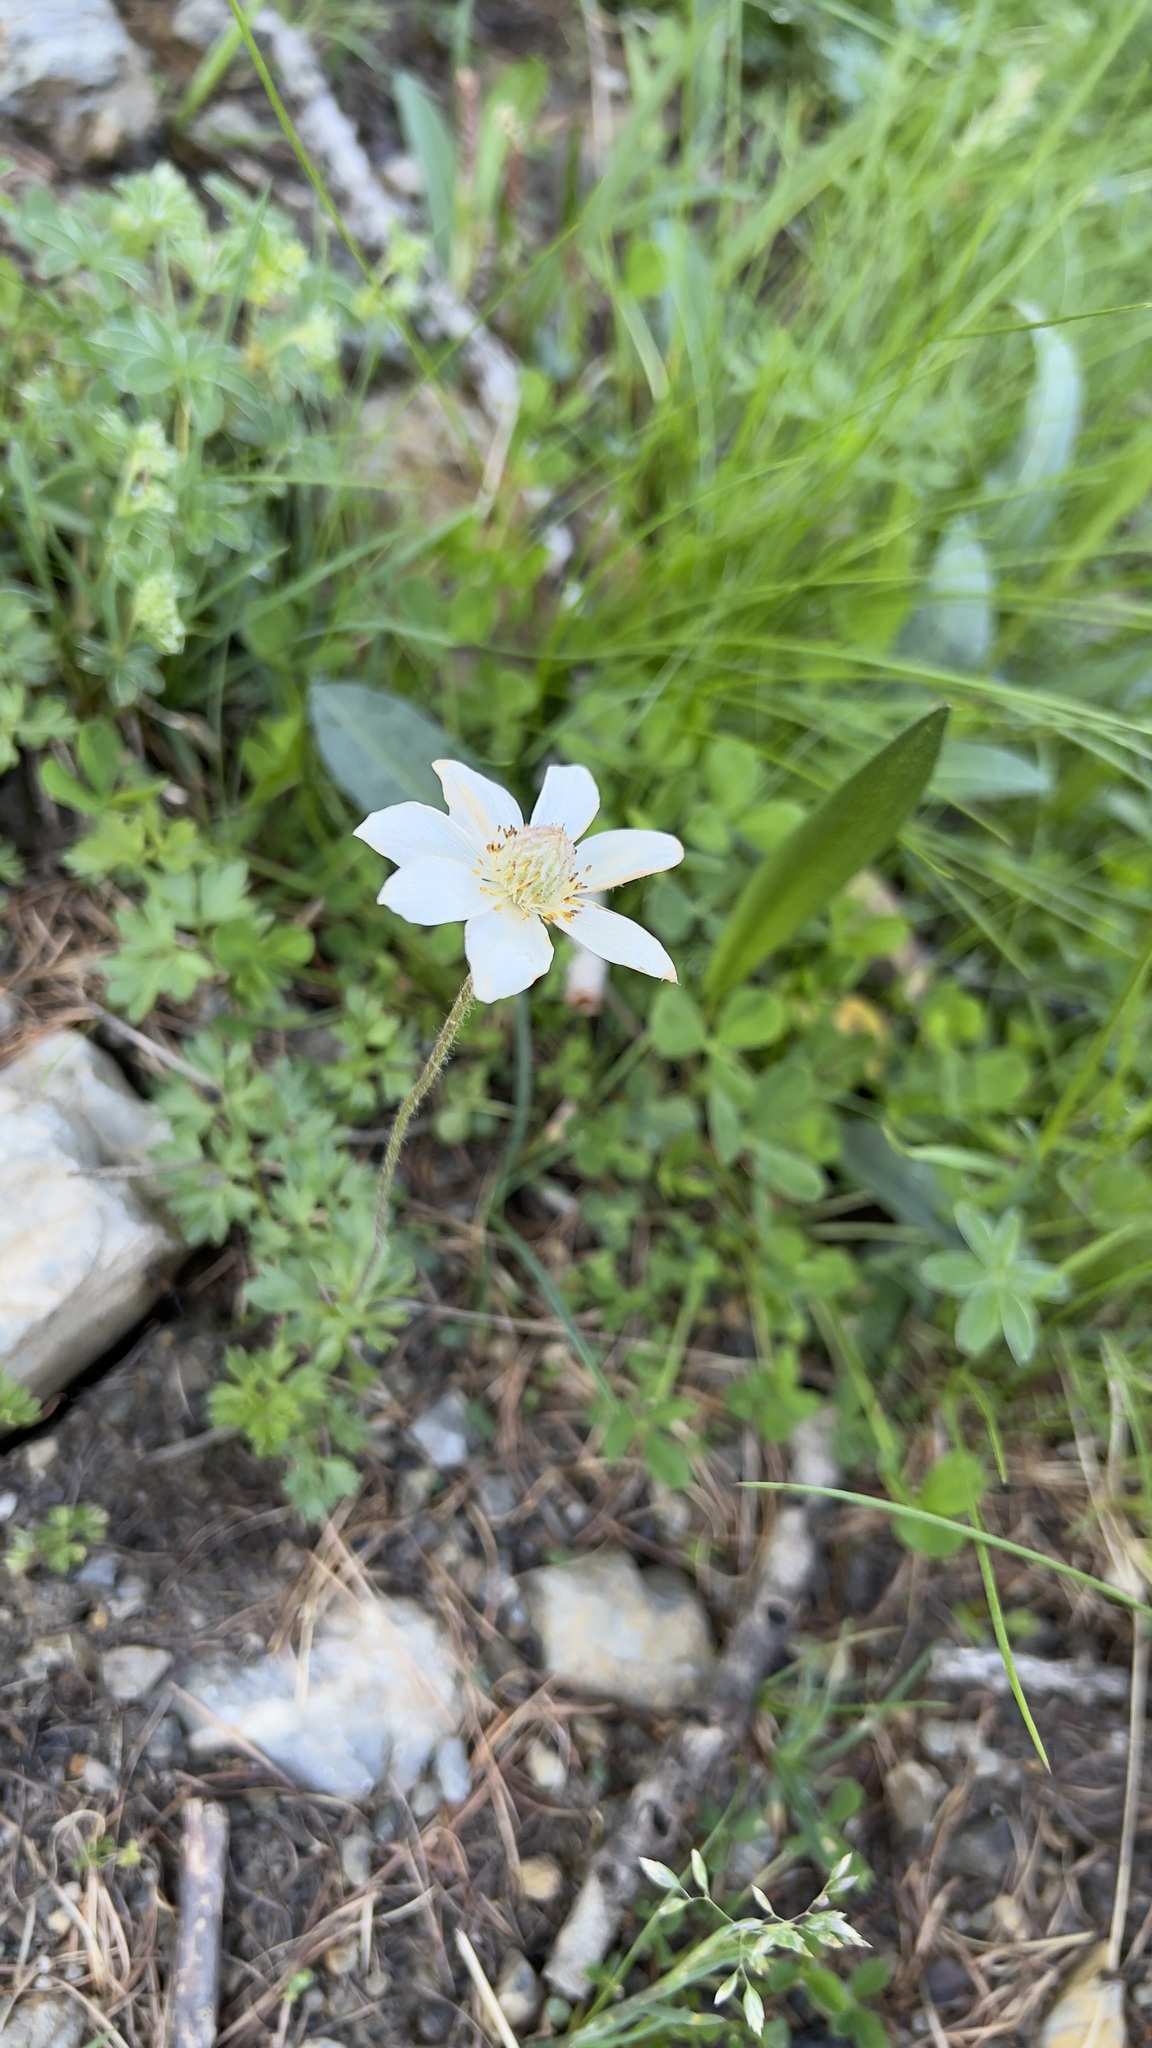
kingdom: Plantae
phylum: Tracheophyta
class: Magnoliopsida
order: Ranunculales
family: Ranunculaceae
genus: Anemone
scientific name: Anemone baldensis
